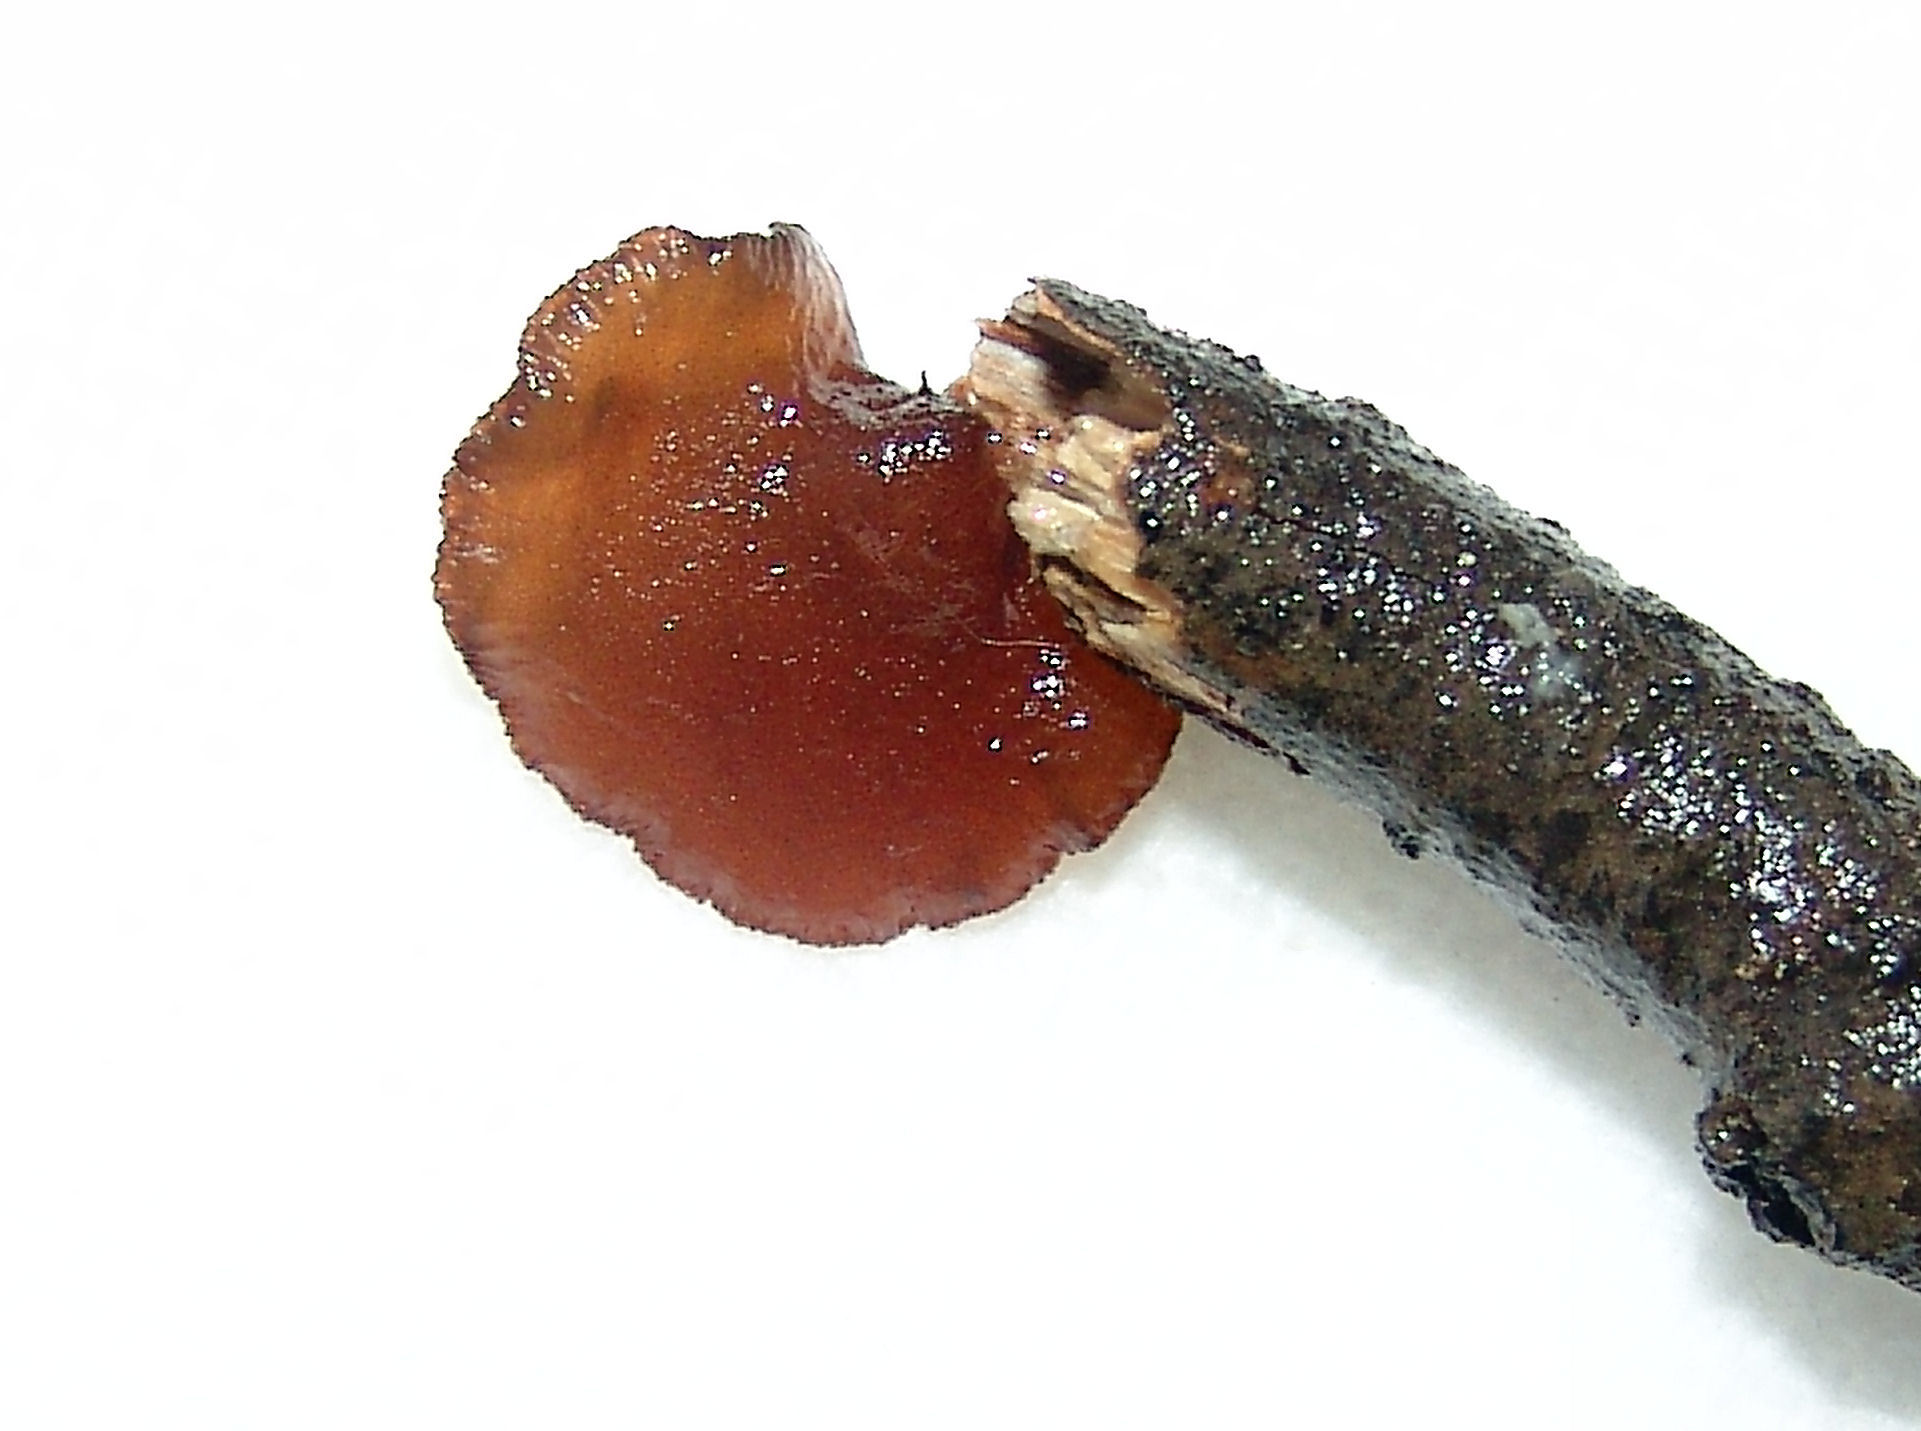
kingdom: Fungi
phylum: Basidiomycota
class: Agaricomycetes
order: Auriculariales
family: Auriculariaceae
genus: Exidia
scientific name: Exidia
